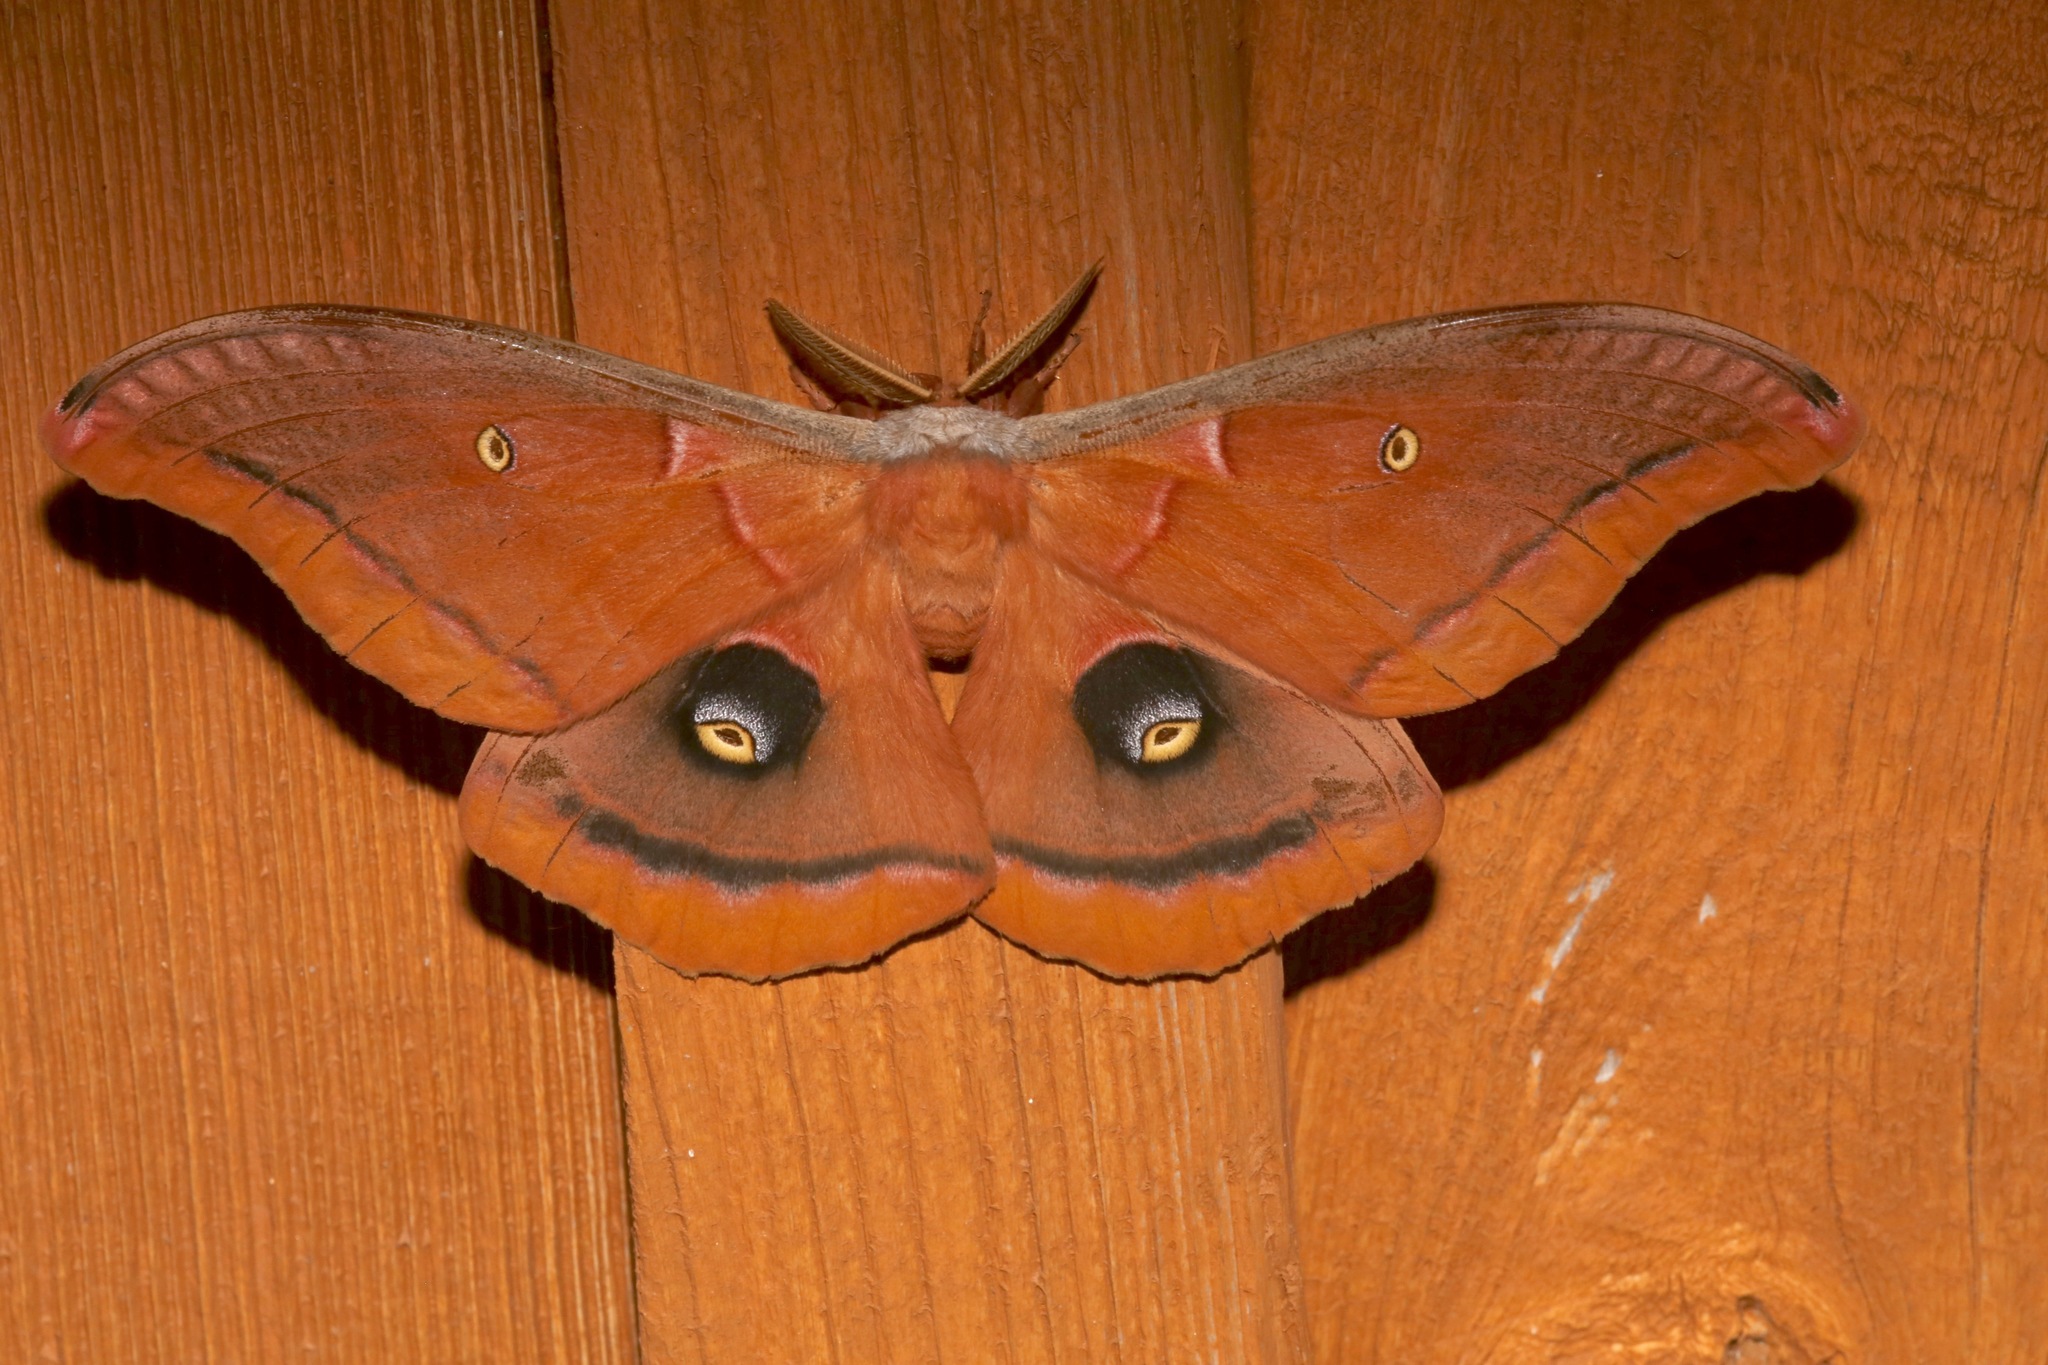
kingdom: Animalia
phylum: Arthropoda
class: Insecta
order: Lepidoptera
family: Saturniidae
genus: Antheraea
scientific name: Antheraea polyphemus
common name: Polyphemus moth
